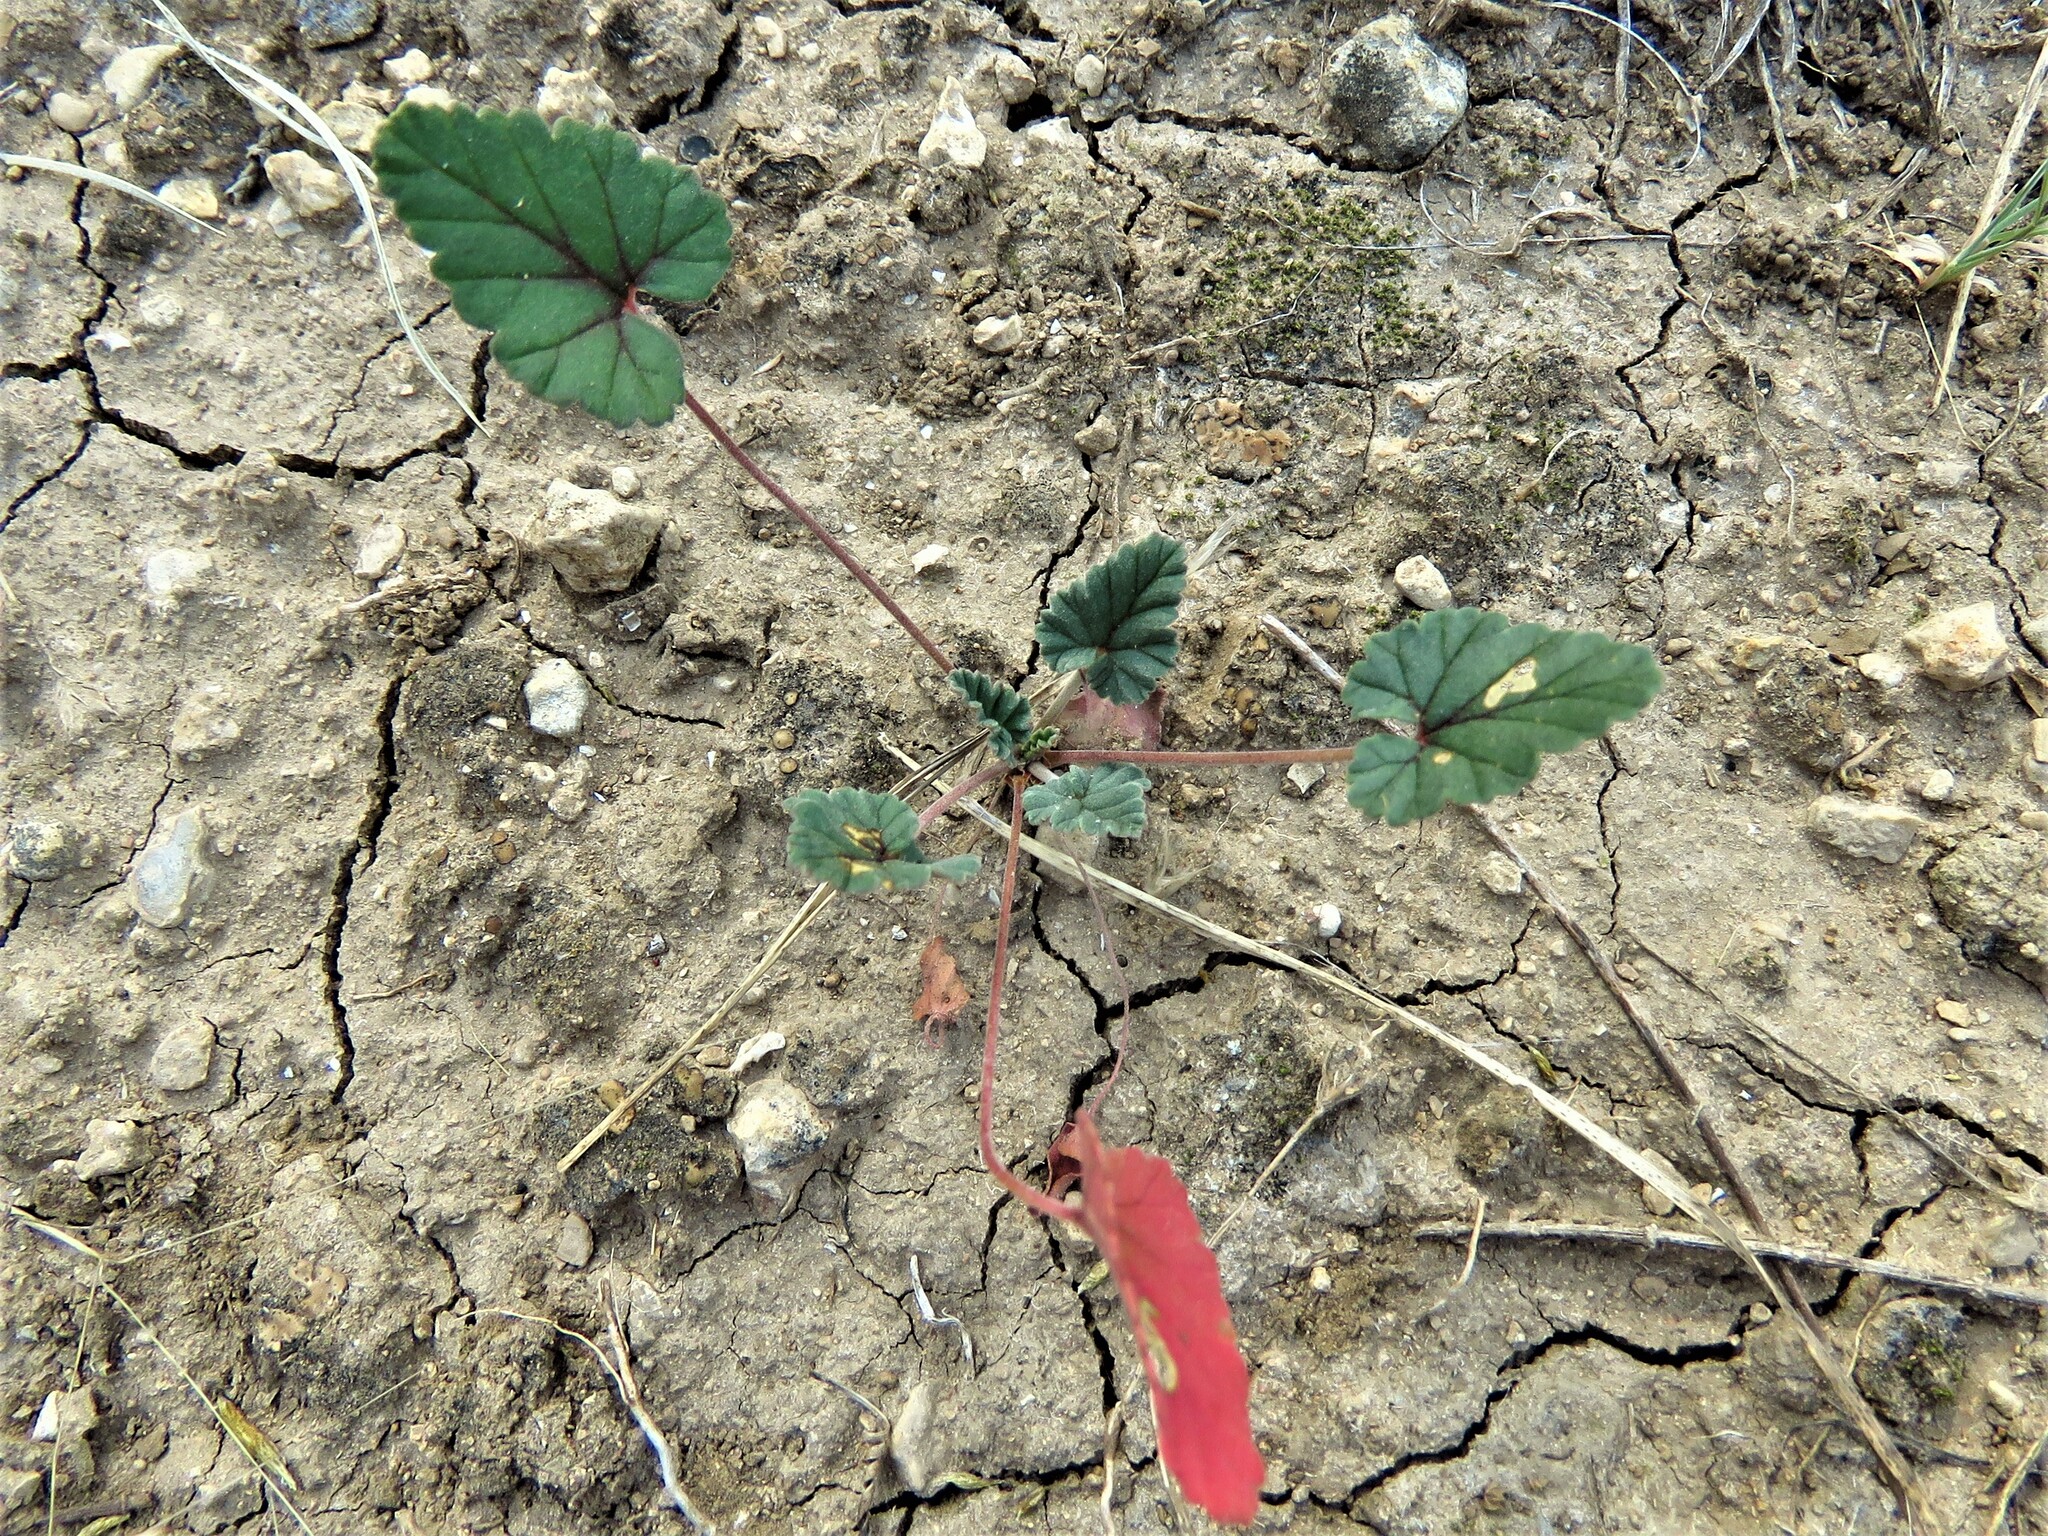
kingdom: Plantae
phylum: Tracheophyta
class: Magnoliopsida
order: Geraniales
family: Geraniaceae
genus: Erodium
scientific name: Erodium texanum
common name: Texas stork's-bill
